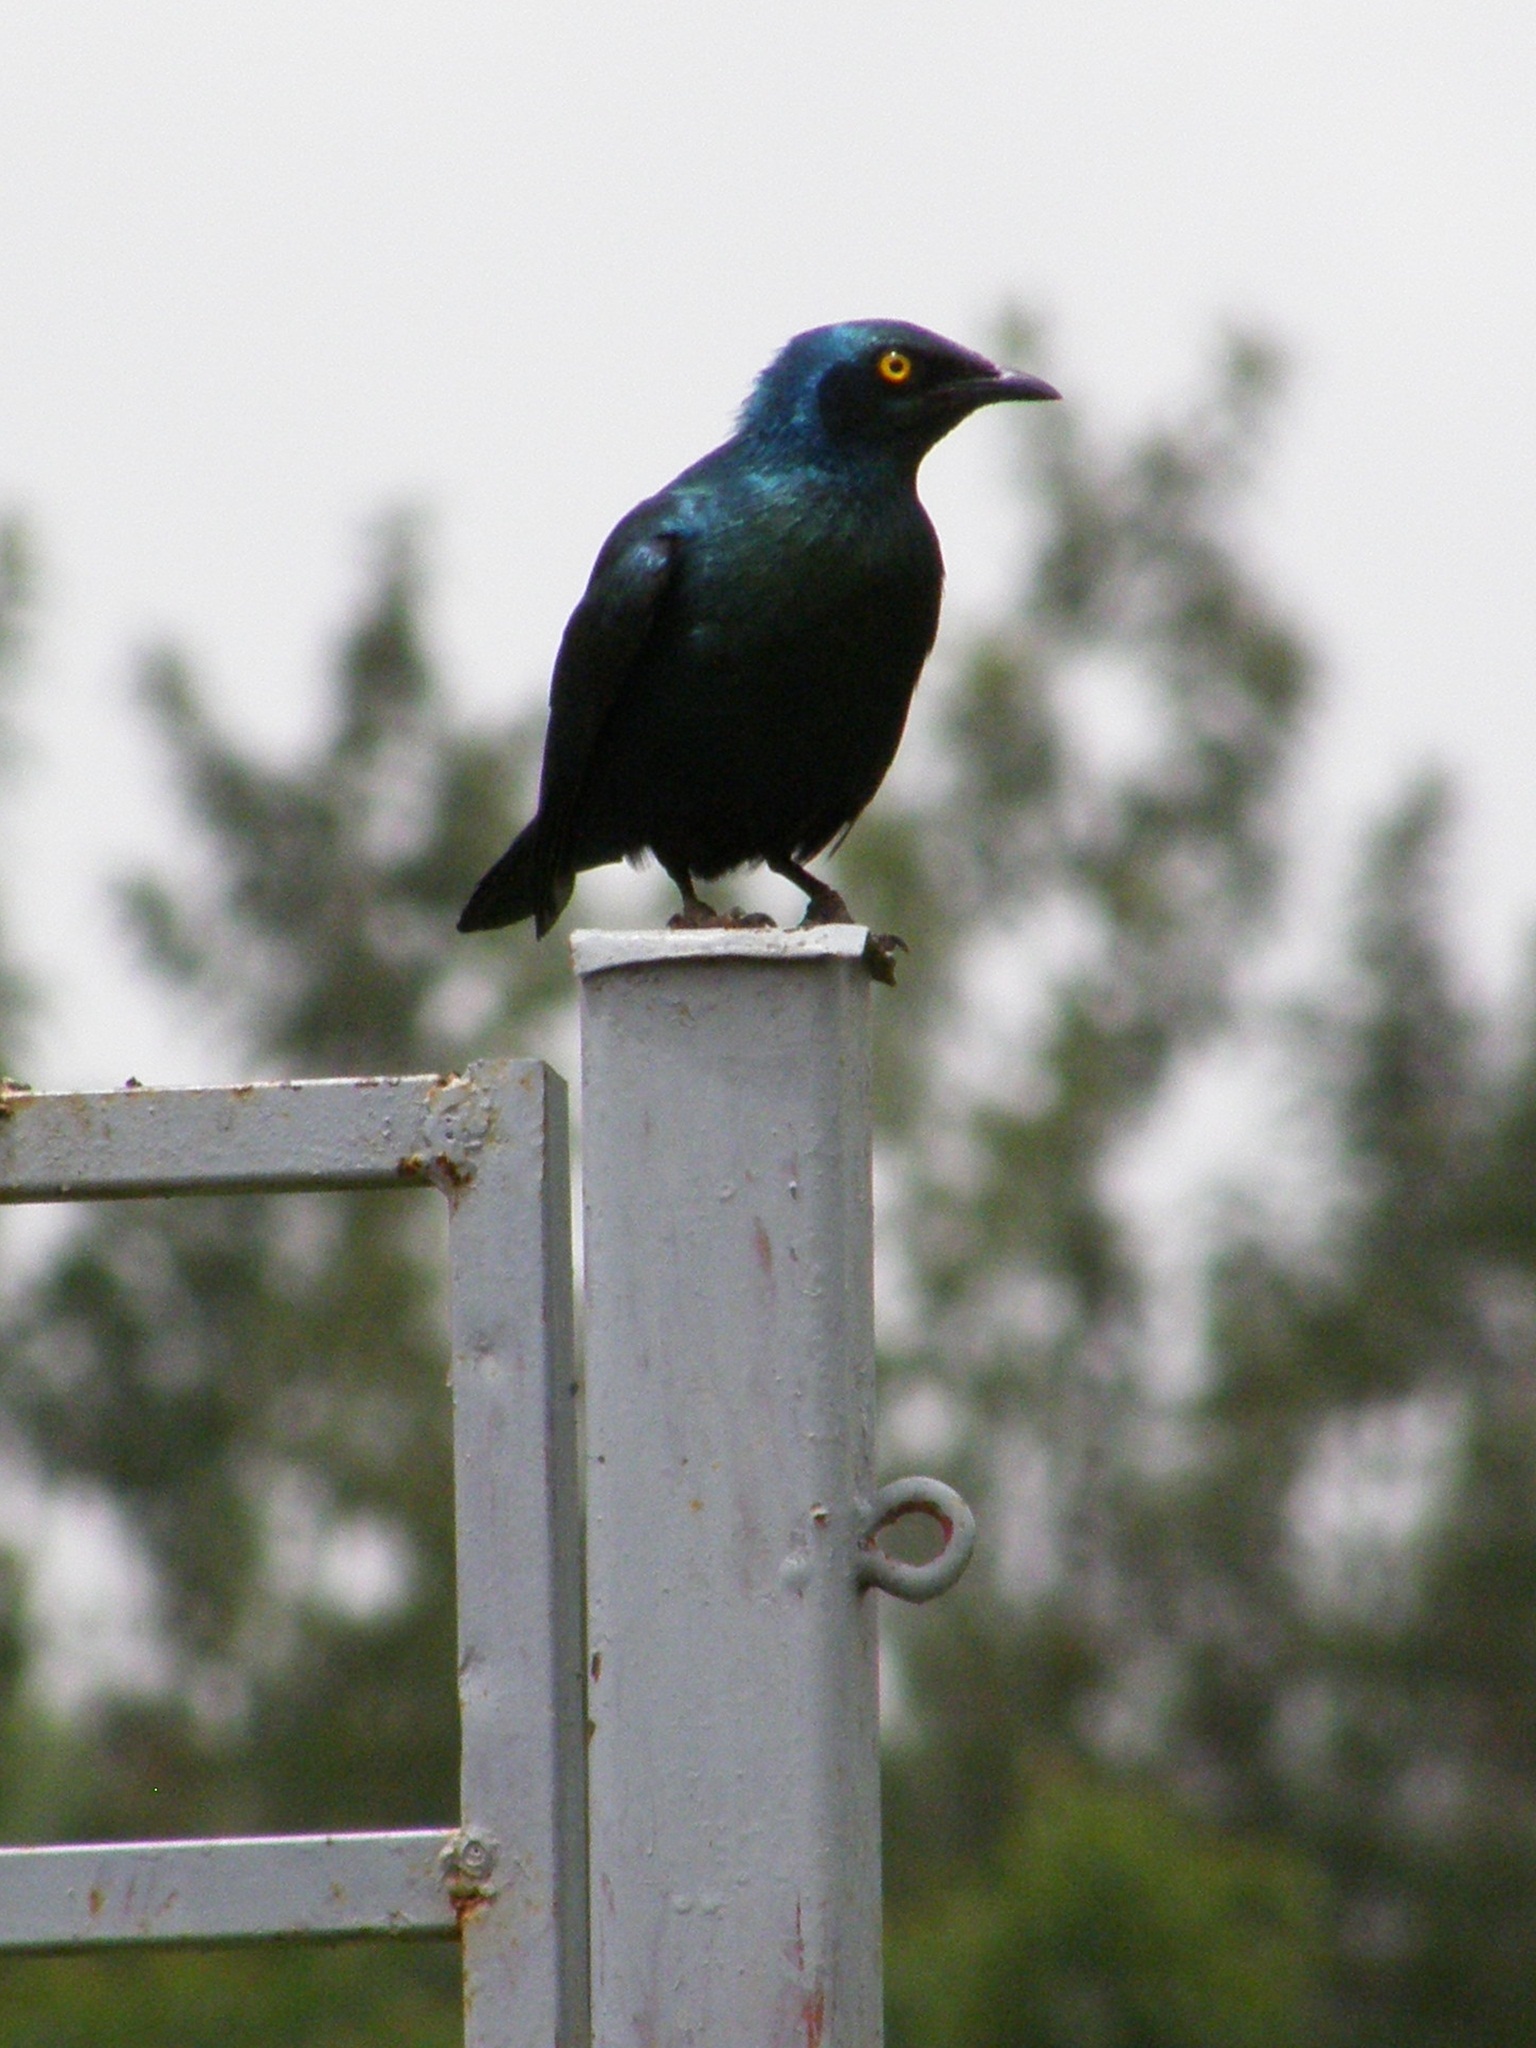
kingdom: Animalia
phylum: Chordata
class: Aves
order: Passeriformes
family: Sturnidae
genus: Lamprotornis
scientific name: Lamprotornis chalybaeus
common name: Greater blue-eared starling
